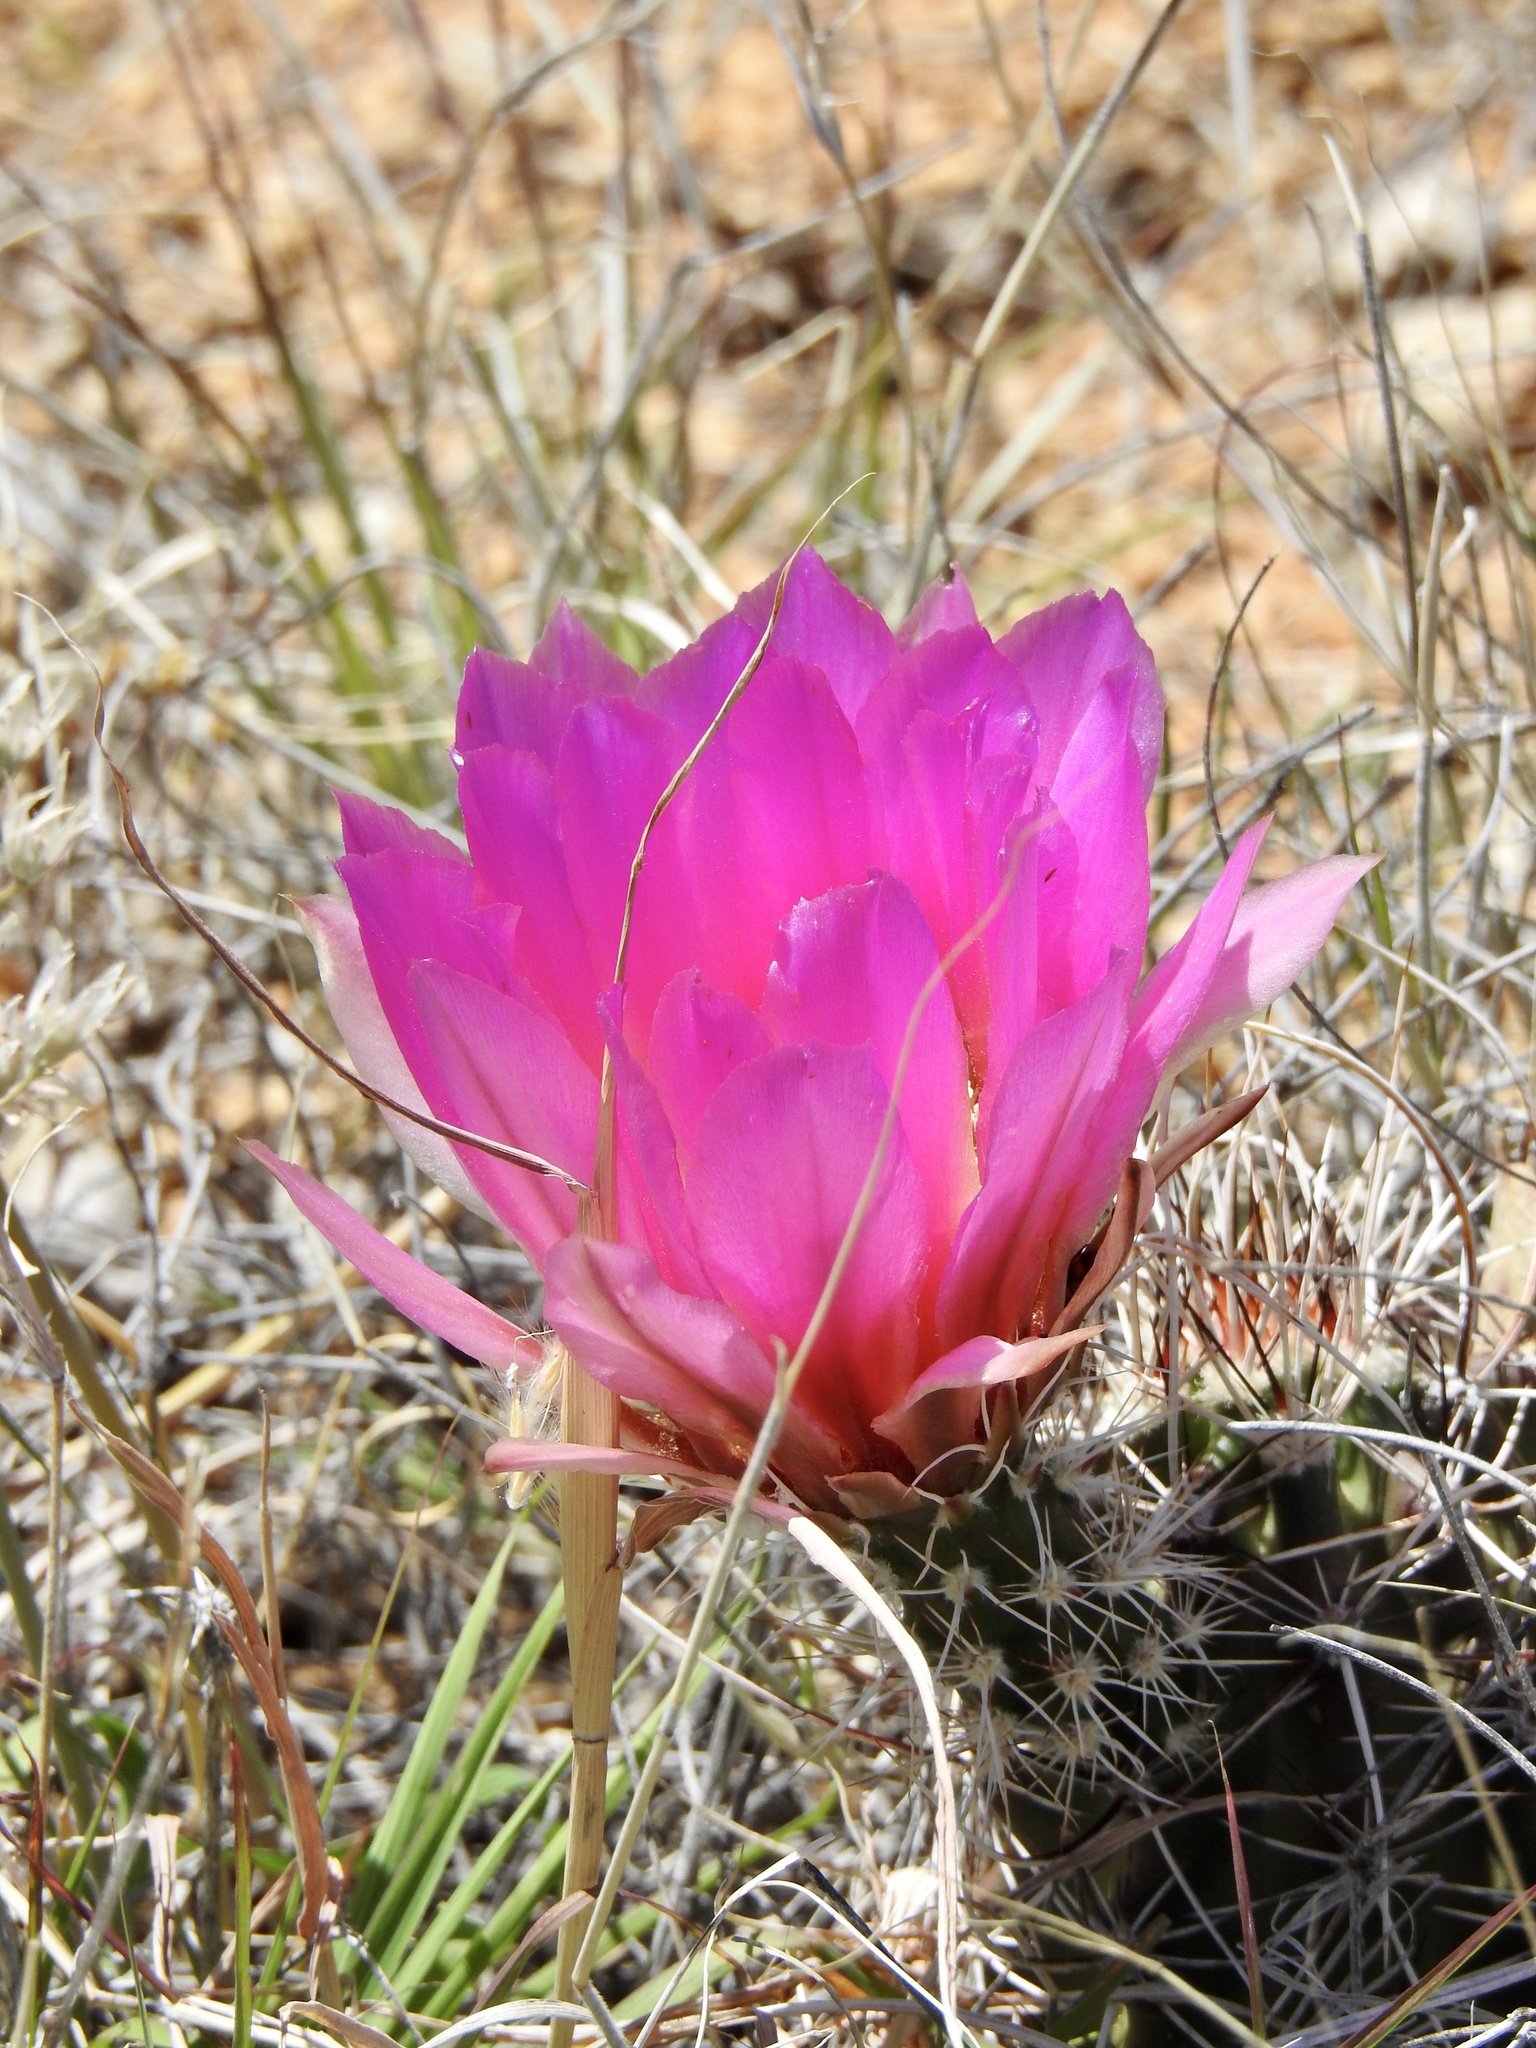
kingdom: Plantae
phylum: Tracheophyta
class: Magnoliopsida
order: Caryophyllales
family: Cactaceae
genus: Echinocereus
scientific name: Echinocereus fendleri
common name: Fendler's hedgehog cactus
